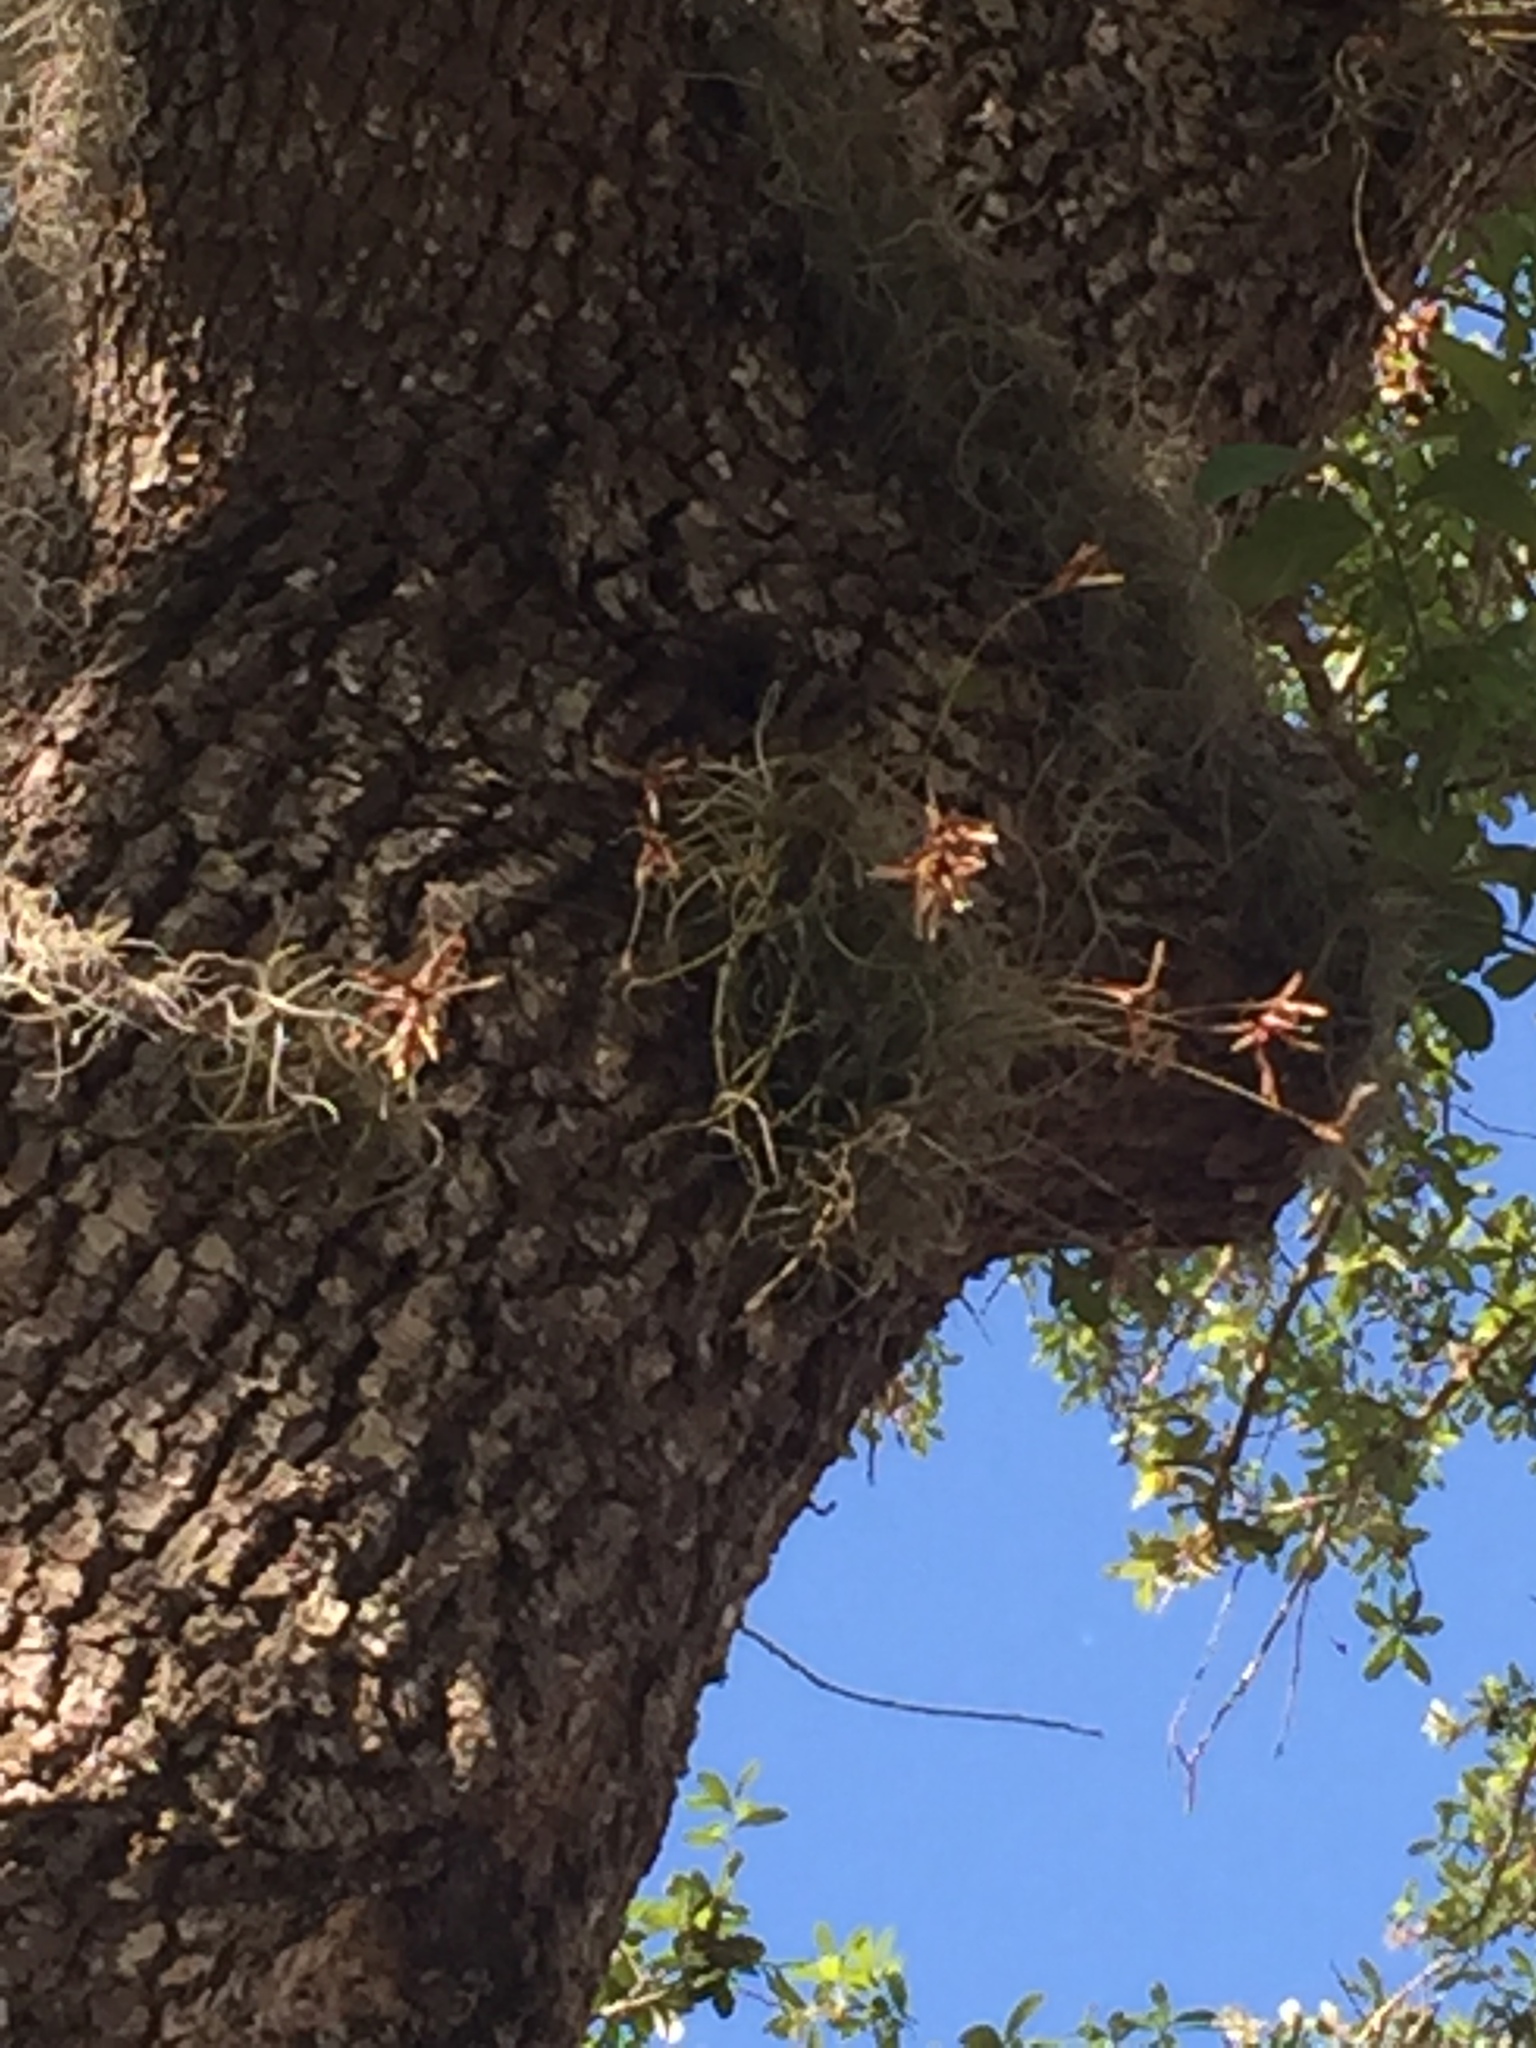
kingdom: Plantae
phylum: Tracheophyta
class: Liliopsida
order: Poales
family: Bromeliaceae
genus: Tillandsia
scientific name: Tillandsia recurvata
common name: Small ballmoss
